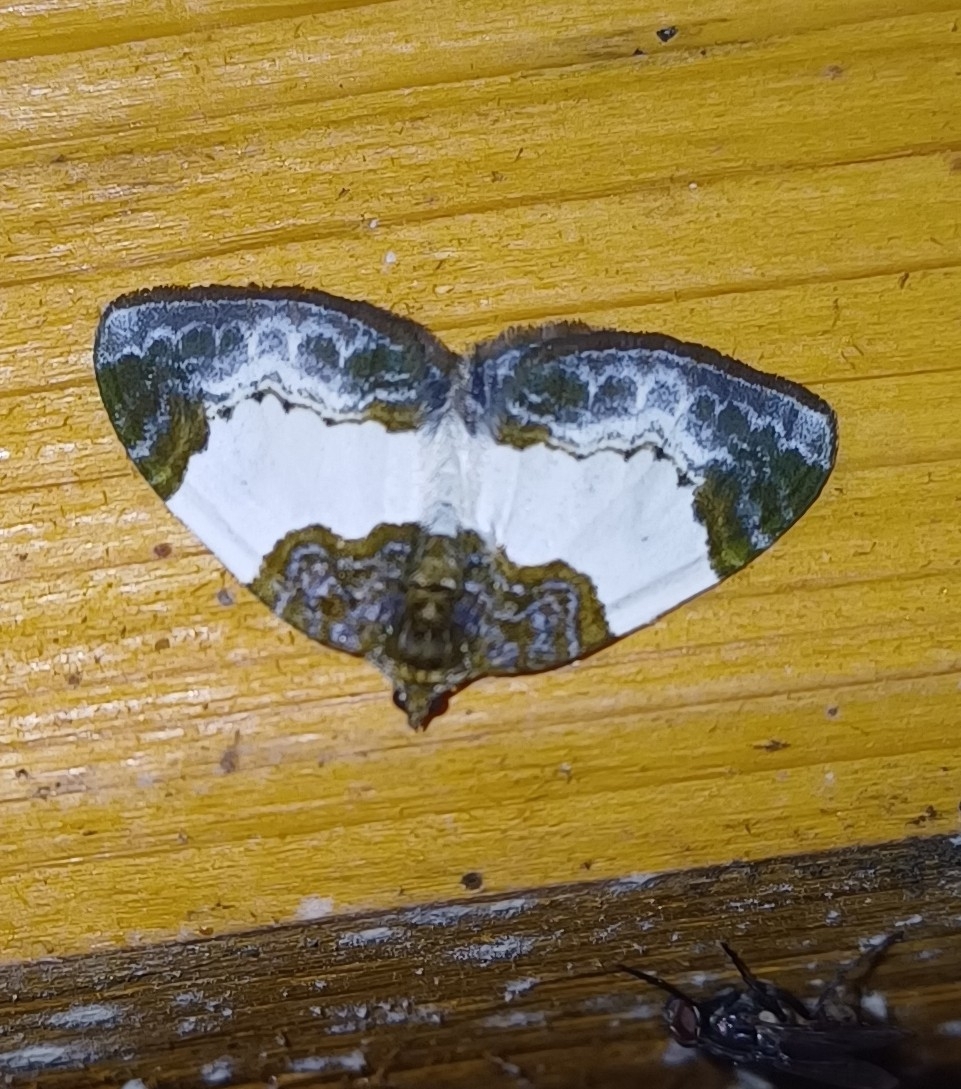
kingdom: Animalia
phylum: Arthropoda
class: Insecta
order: Lepidoptera
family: Geometridae
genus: Mesoleuca
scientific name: Mesoleuca albicillata
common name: Beautiful carpet
